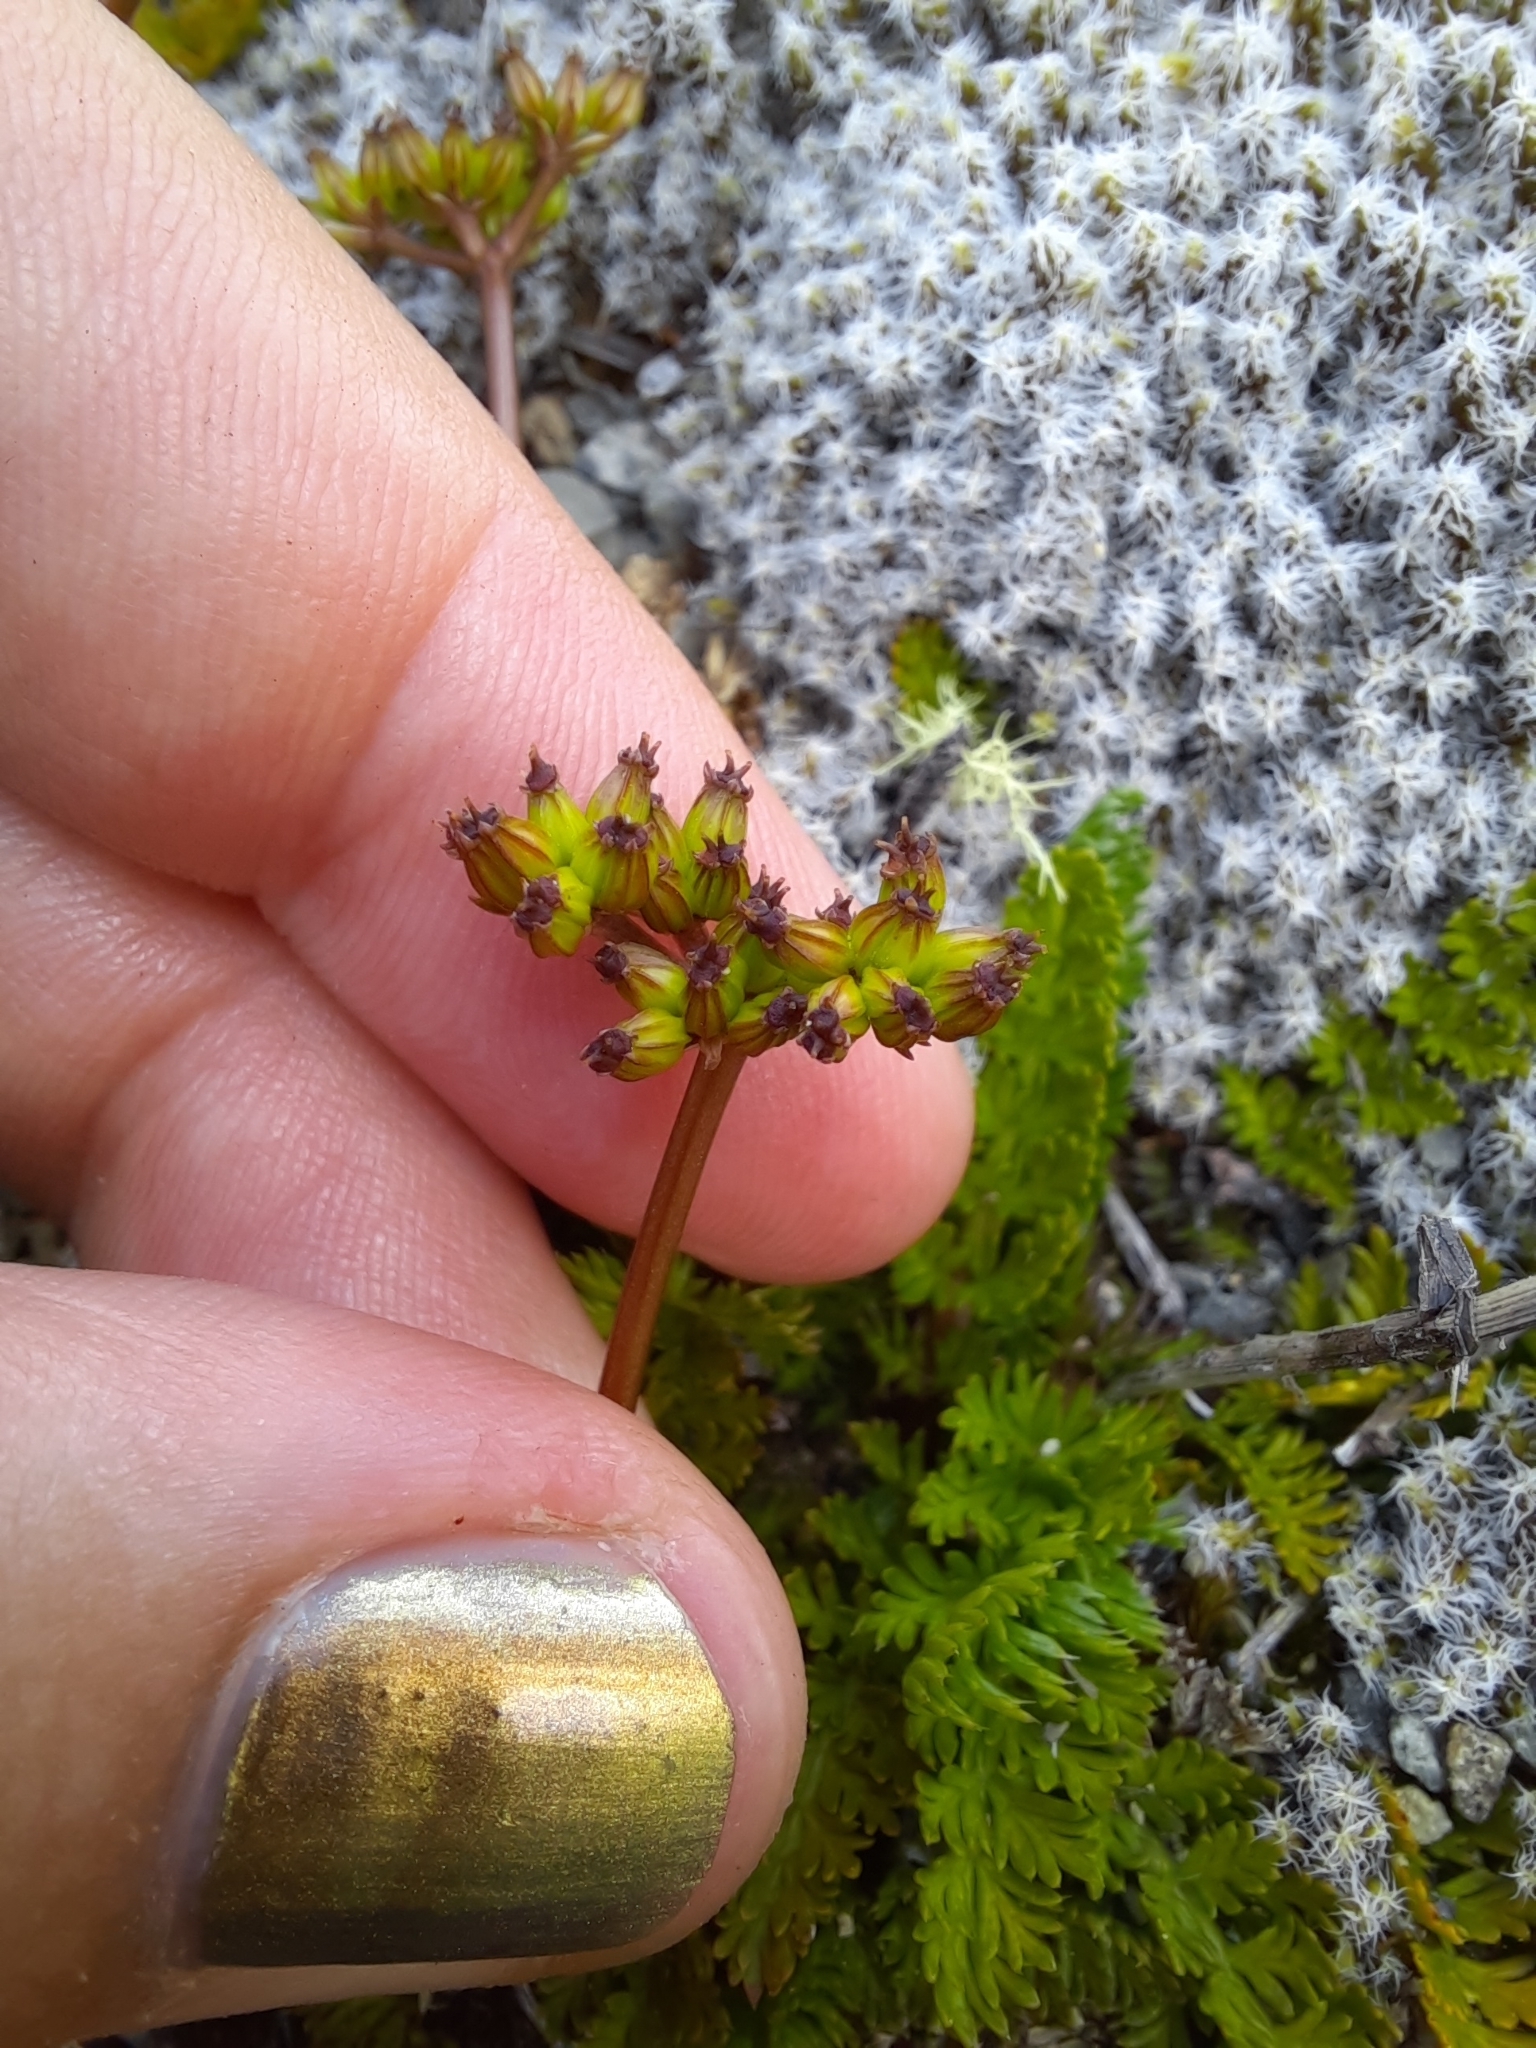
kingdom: Plantae
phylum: Tracheophyta
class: Magnoliopsida
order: Apiales
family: Apiaceae
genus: Anisotome
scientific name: Anisotome flexuosa
